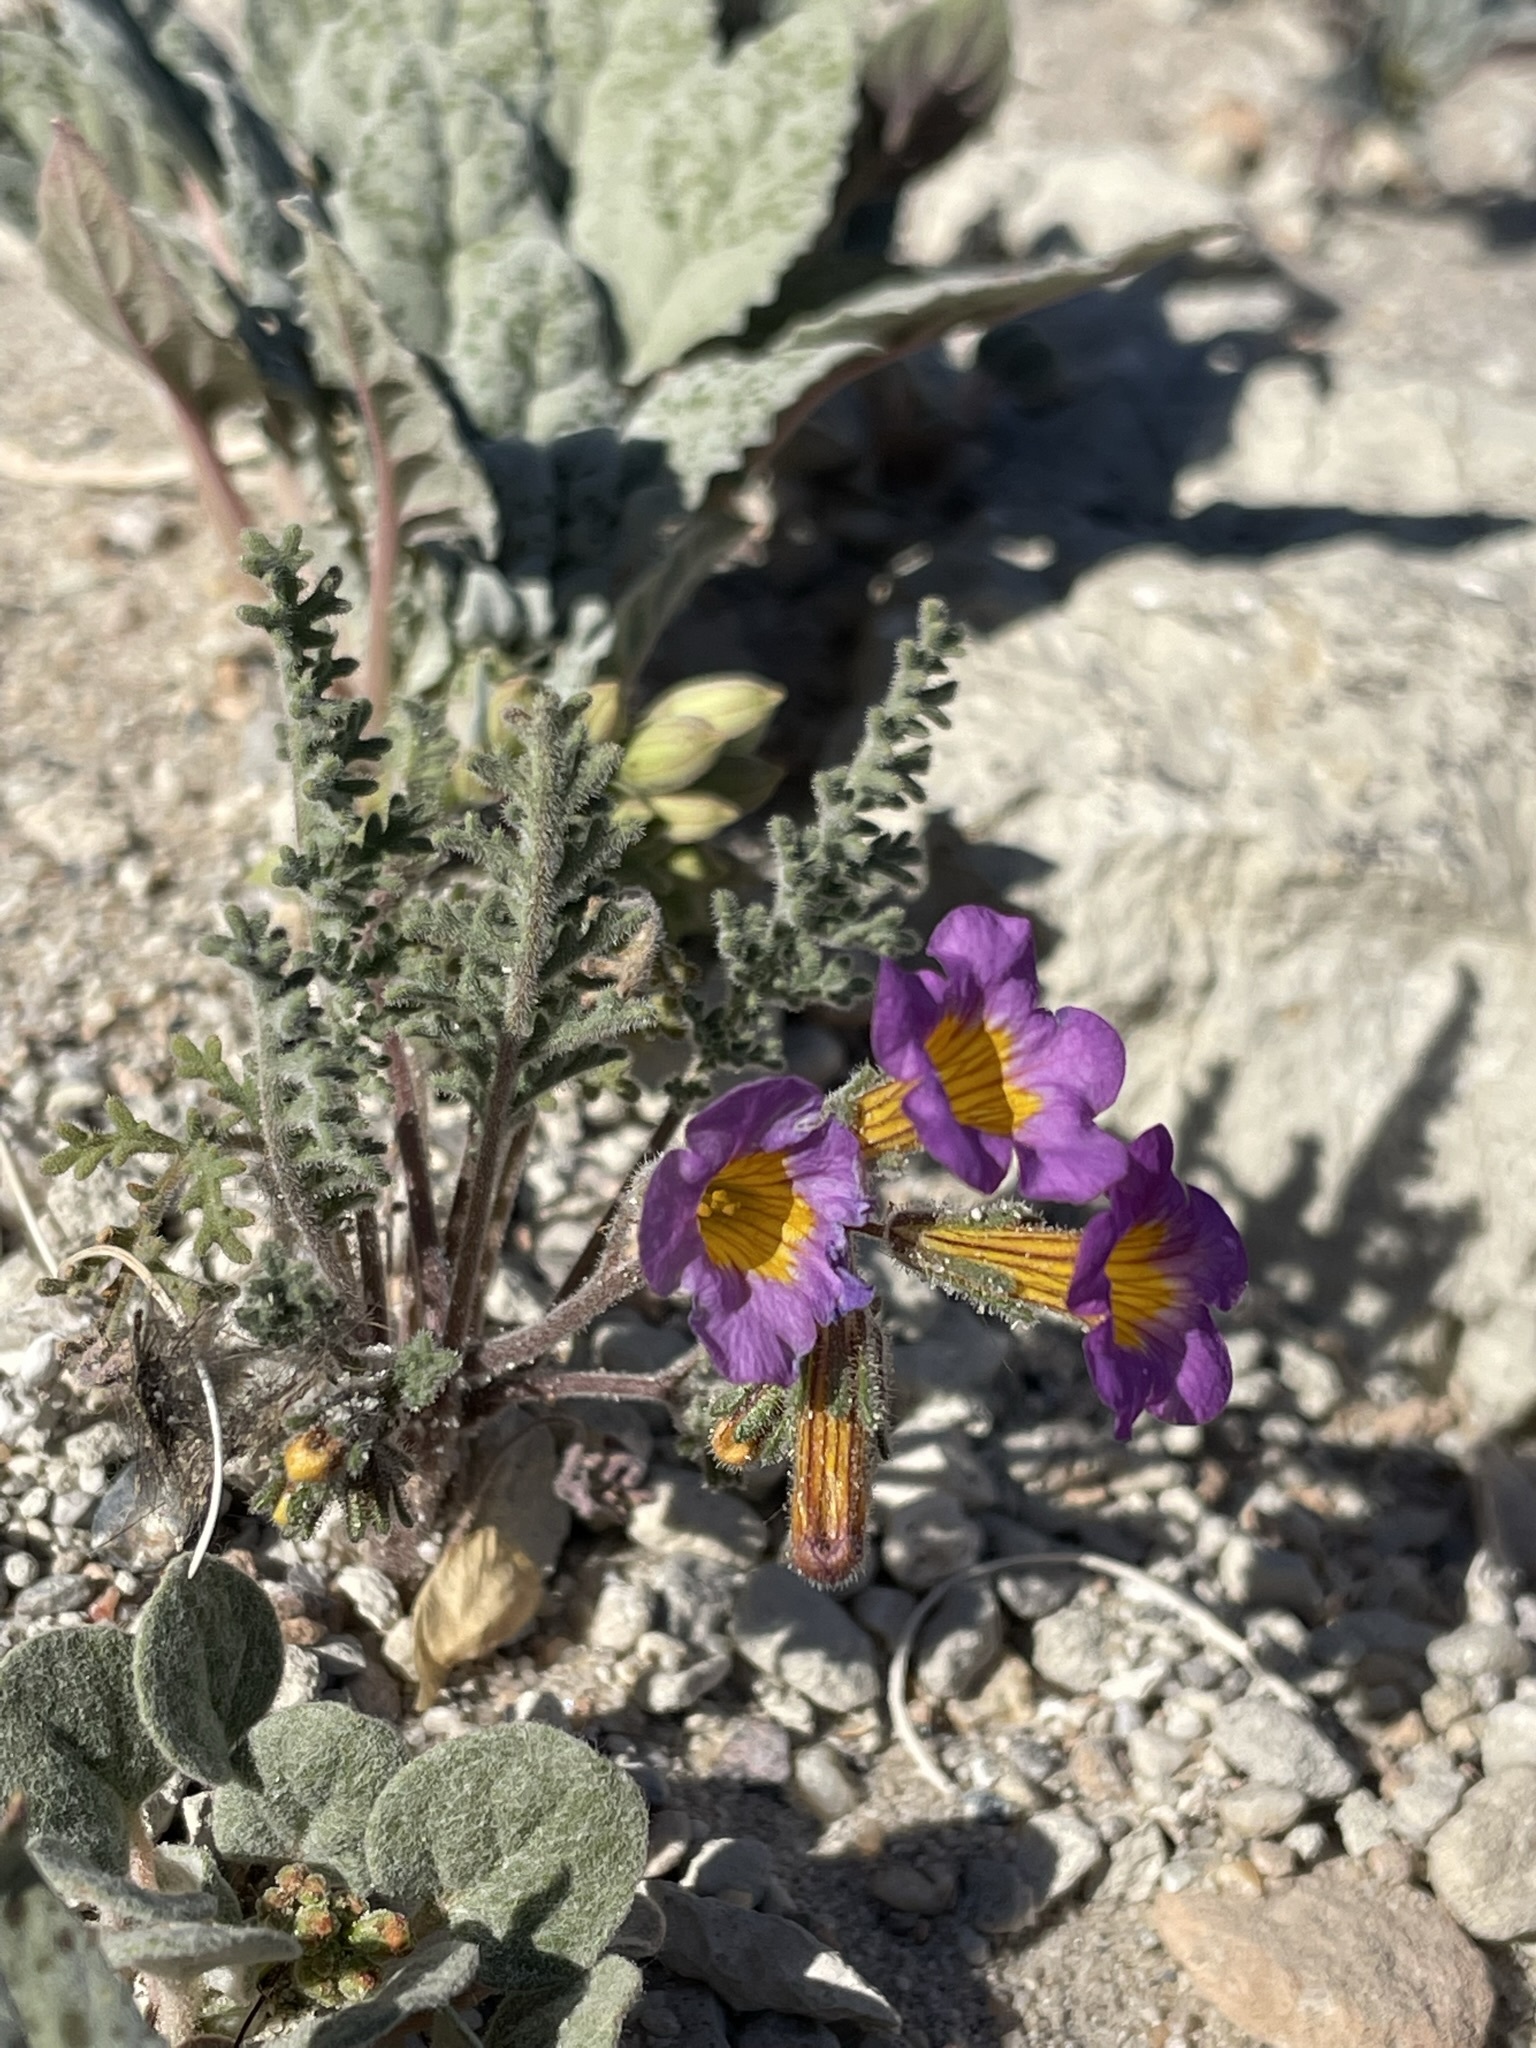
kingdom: Plantae
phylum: Tracheophyta
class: Magnoliopsida
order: Boraginales
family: Hydrophyllaceae
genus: Phacelia
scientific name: Phacelia bicolor
